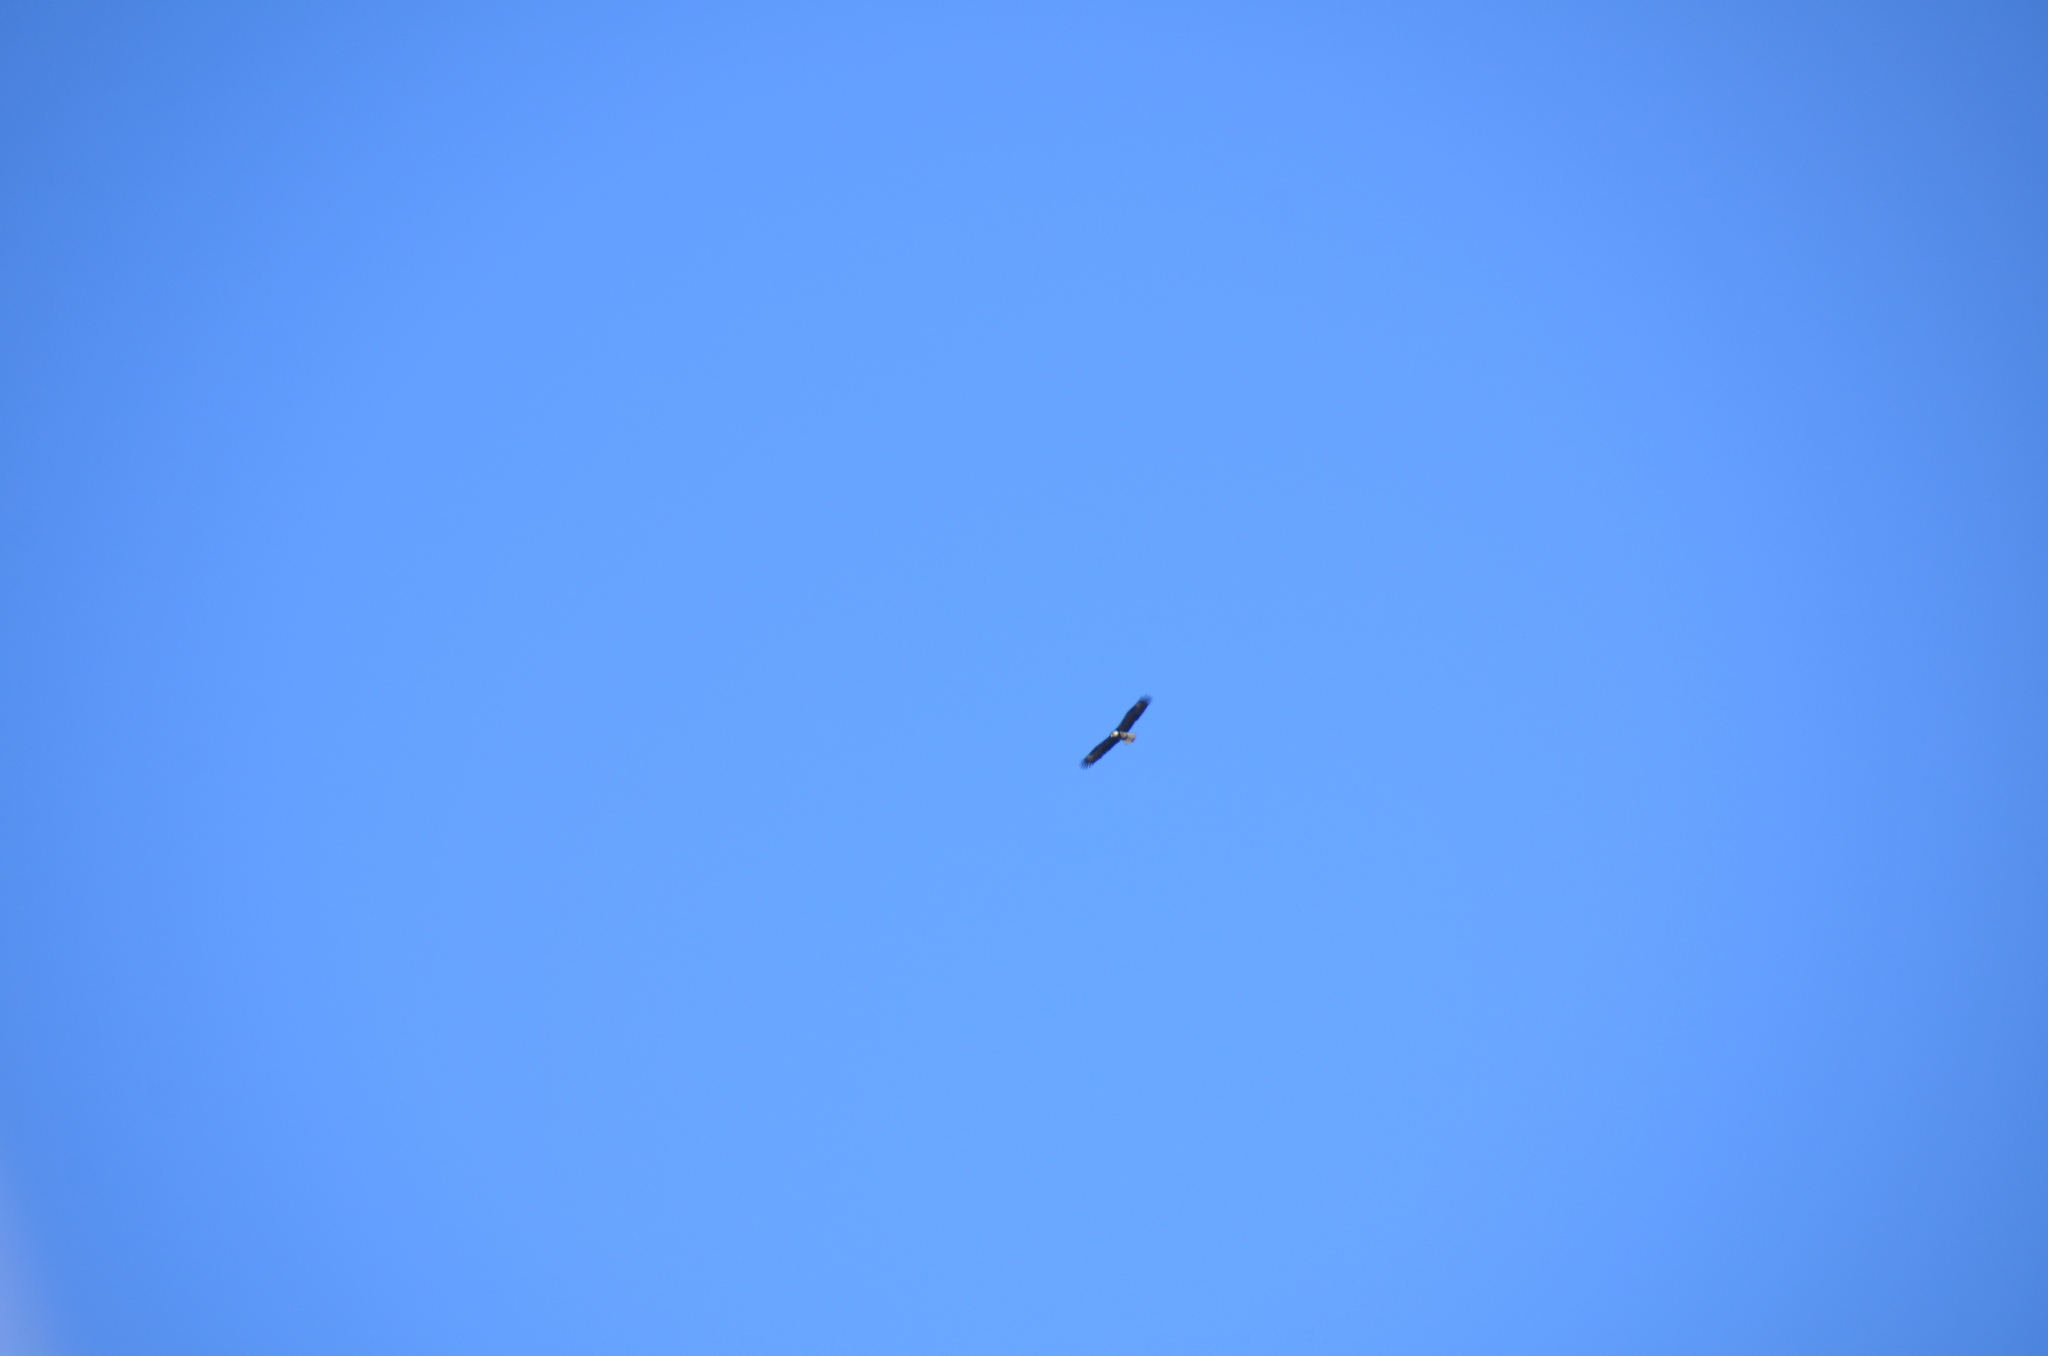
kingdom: Animalia
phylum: Chordata
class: Aves
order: Accipitriformes
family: Accipitridae
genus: Haliaeetus
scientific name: Haliaeetus leucocephalus
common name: Bald eagle
